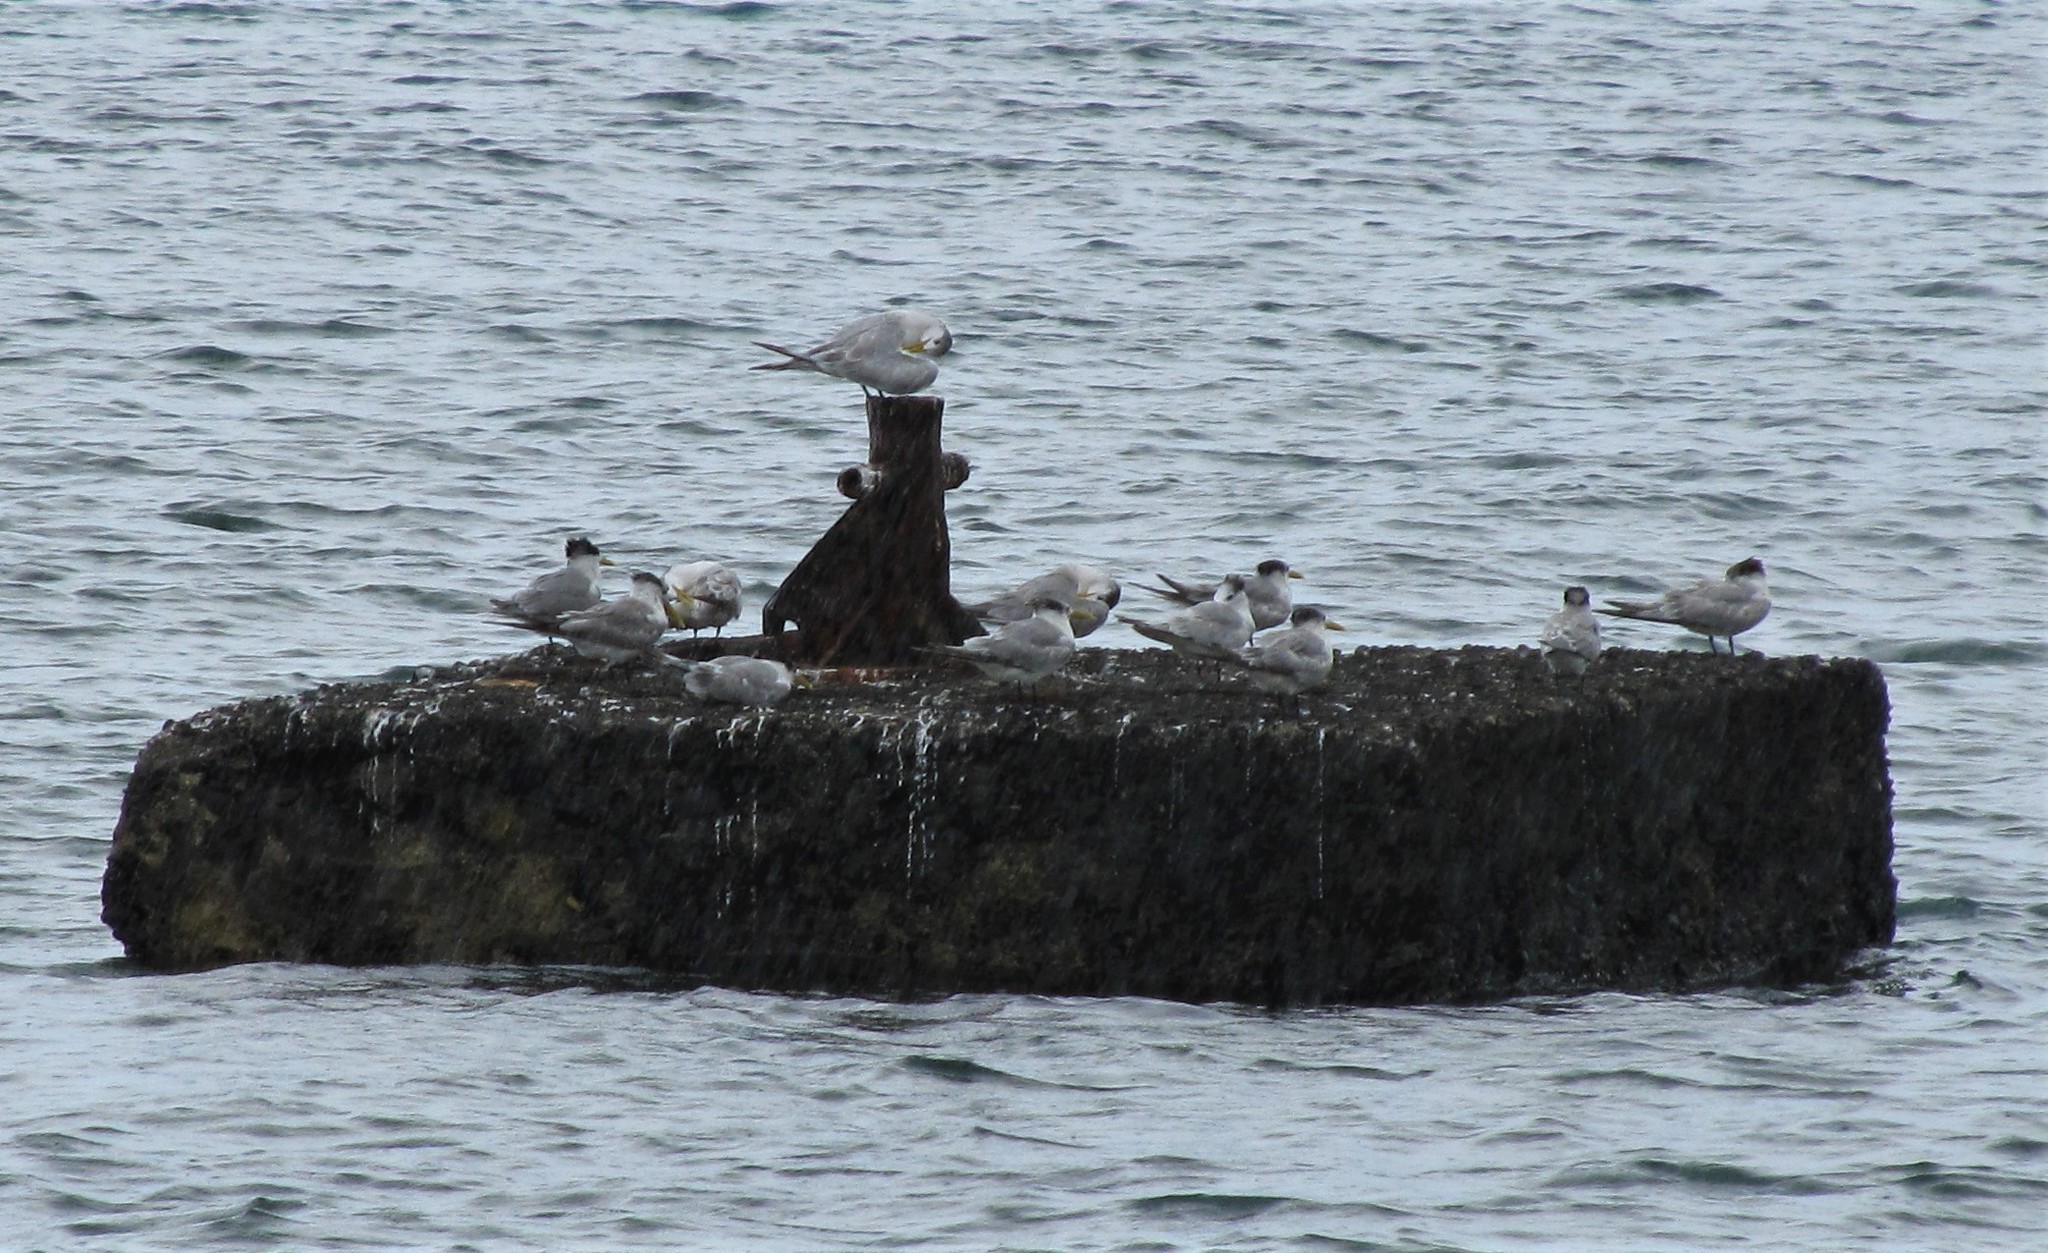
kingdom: Animalia
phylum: Chordata
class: Aves
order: Charadriiformes
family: Laridae
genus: Thalasseus
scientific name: Thalasseus bergii
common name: Greater crested tern
